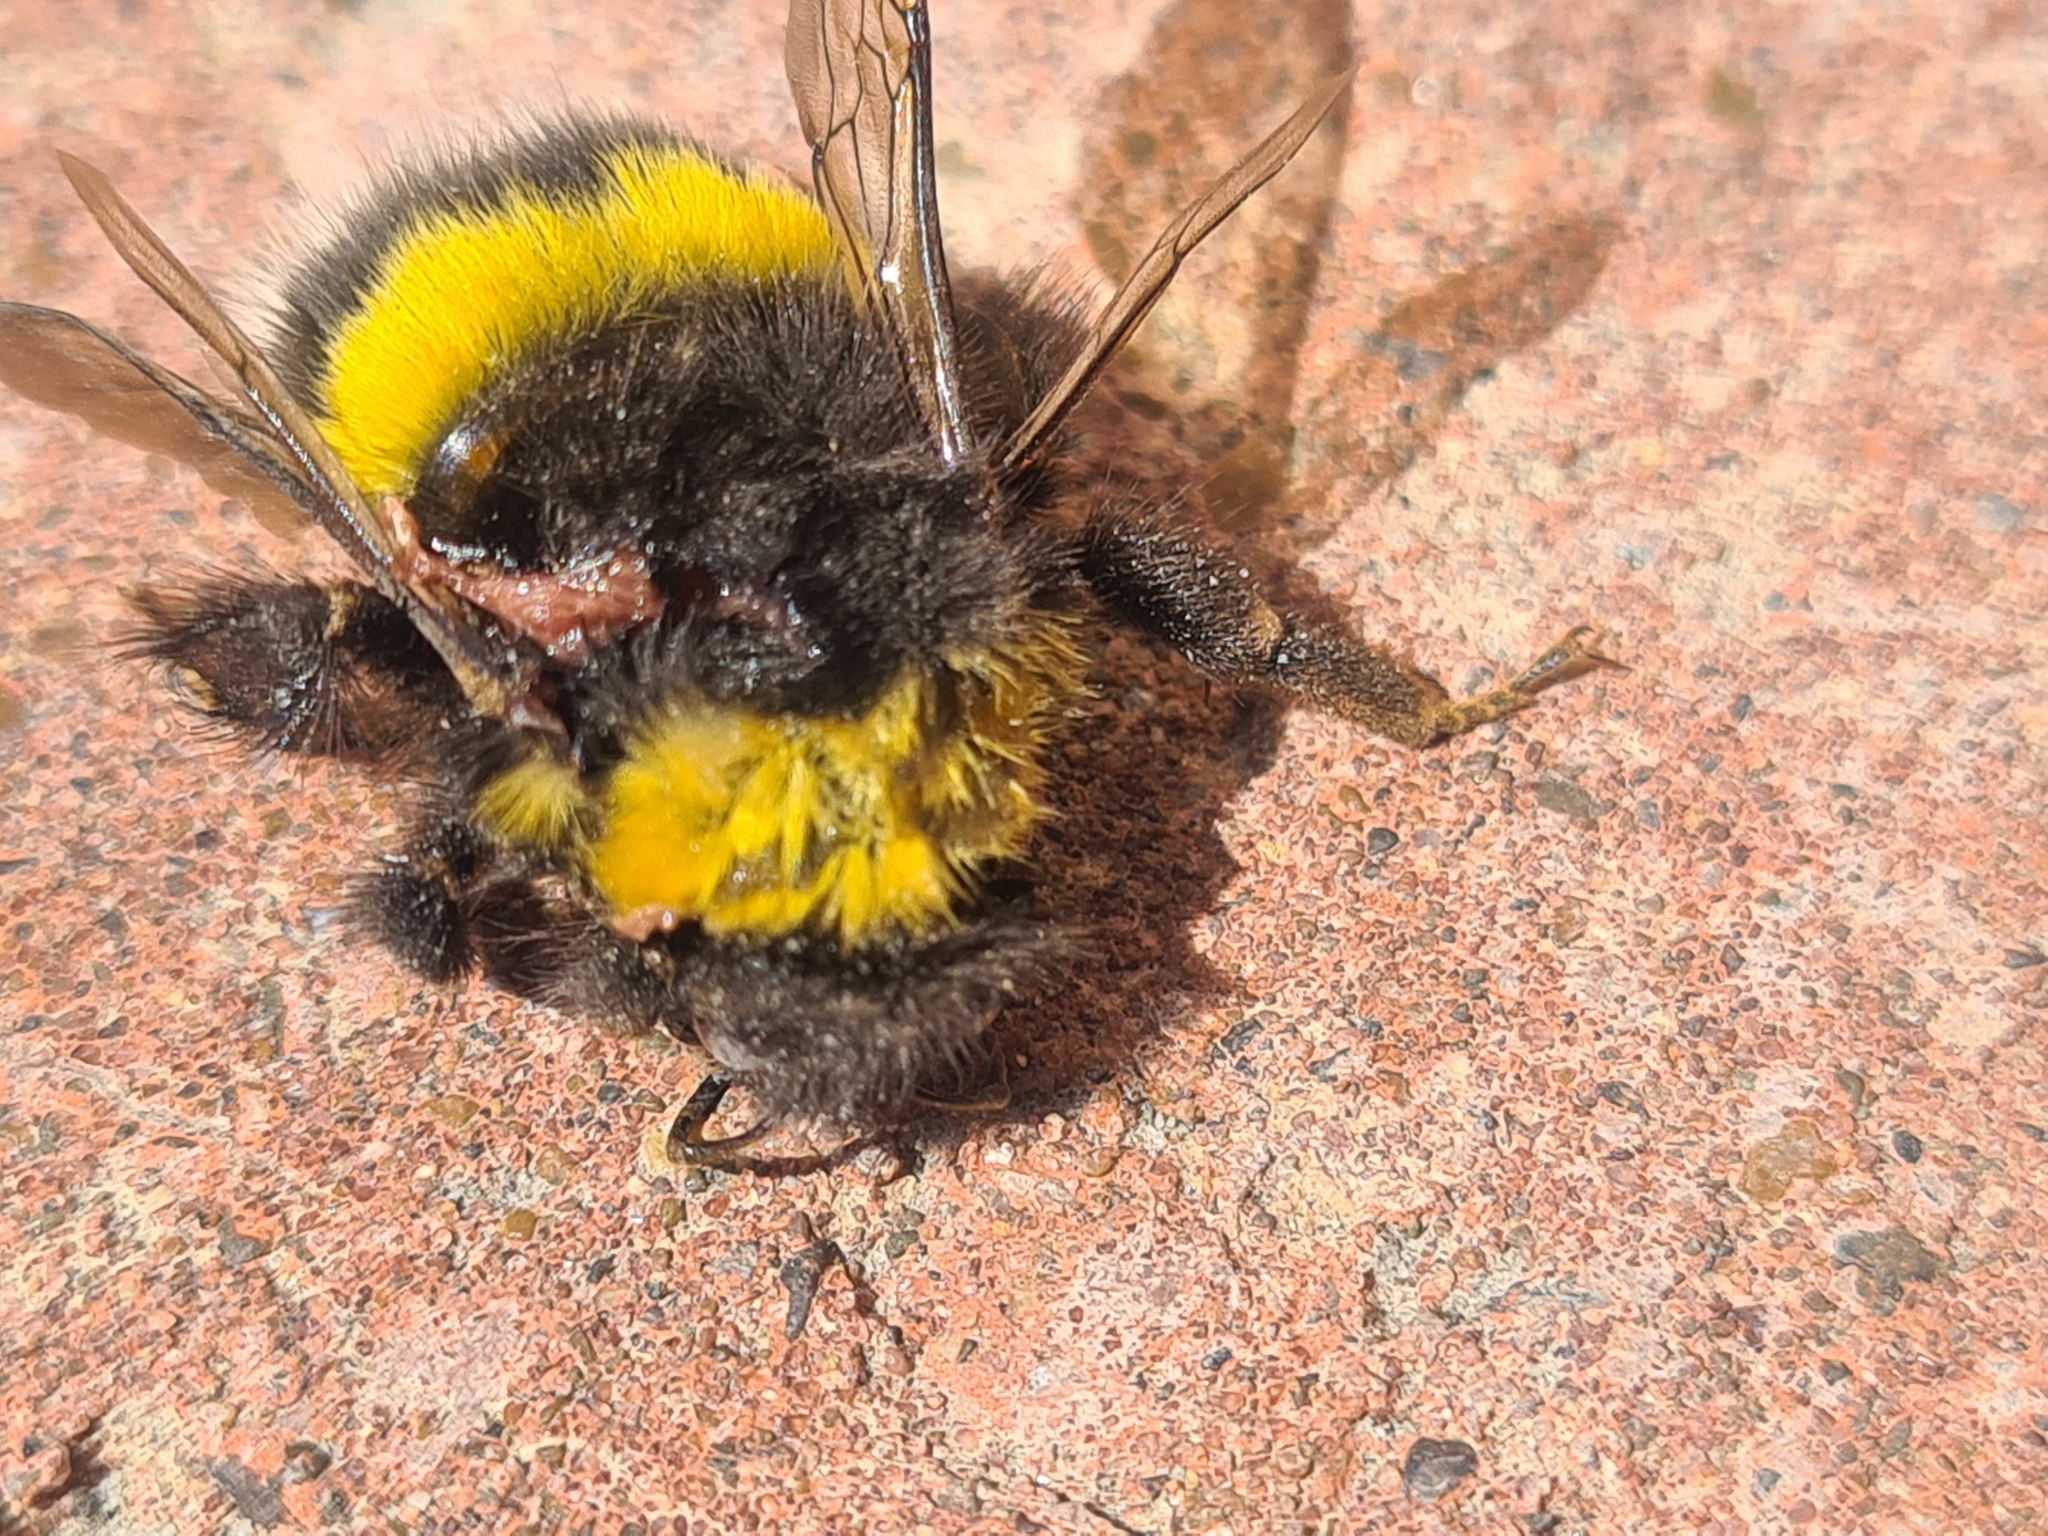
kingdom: Animalia
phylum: Arthropoda
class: Insecta
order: Hymenoptera
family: Apidae
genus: Bombus
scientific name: Bombus
